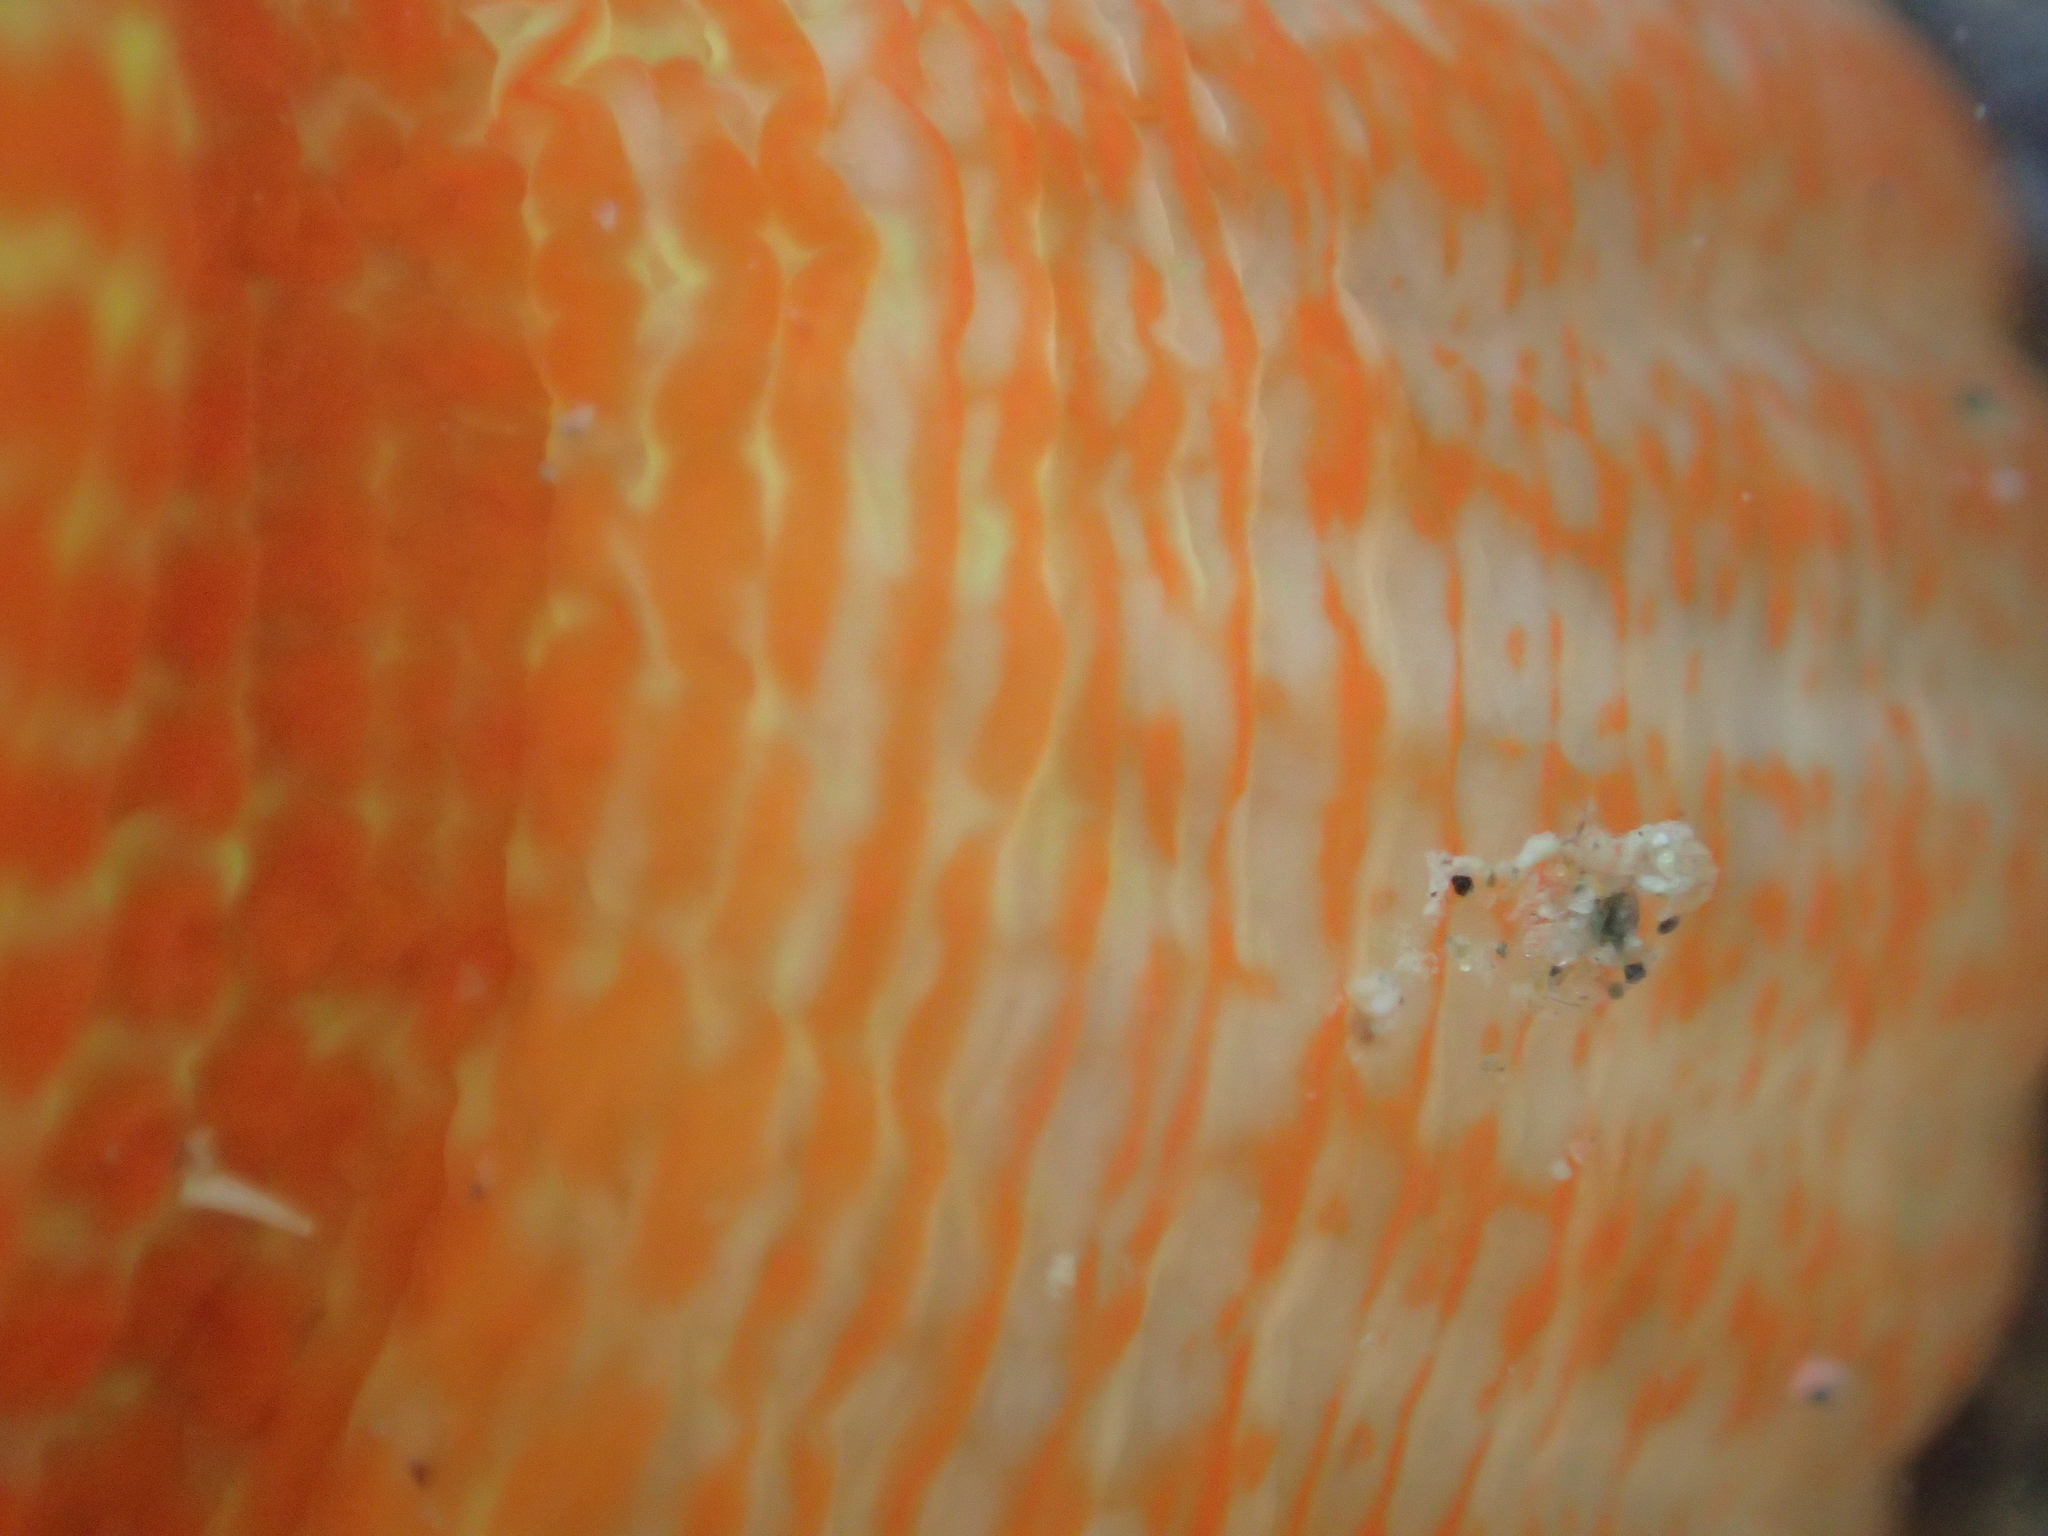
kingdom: Animalia
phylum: Cnidaria
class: Anthozoa
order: Actiniaria
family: Actiniidae
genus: Epiactis
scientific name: Epiactis thompsoni
